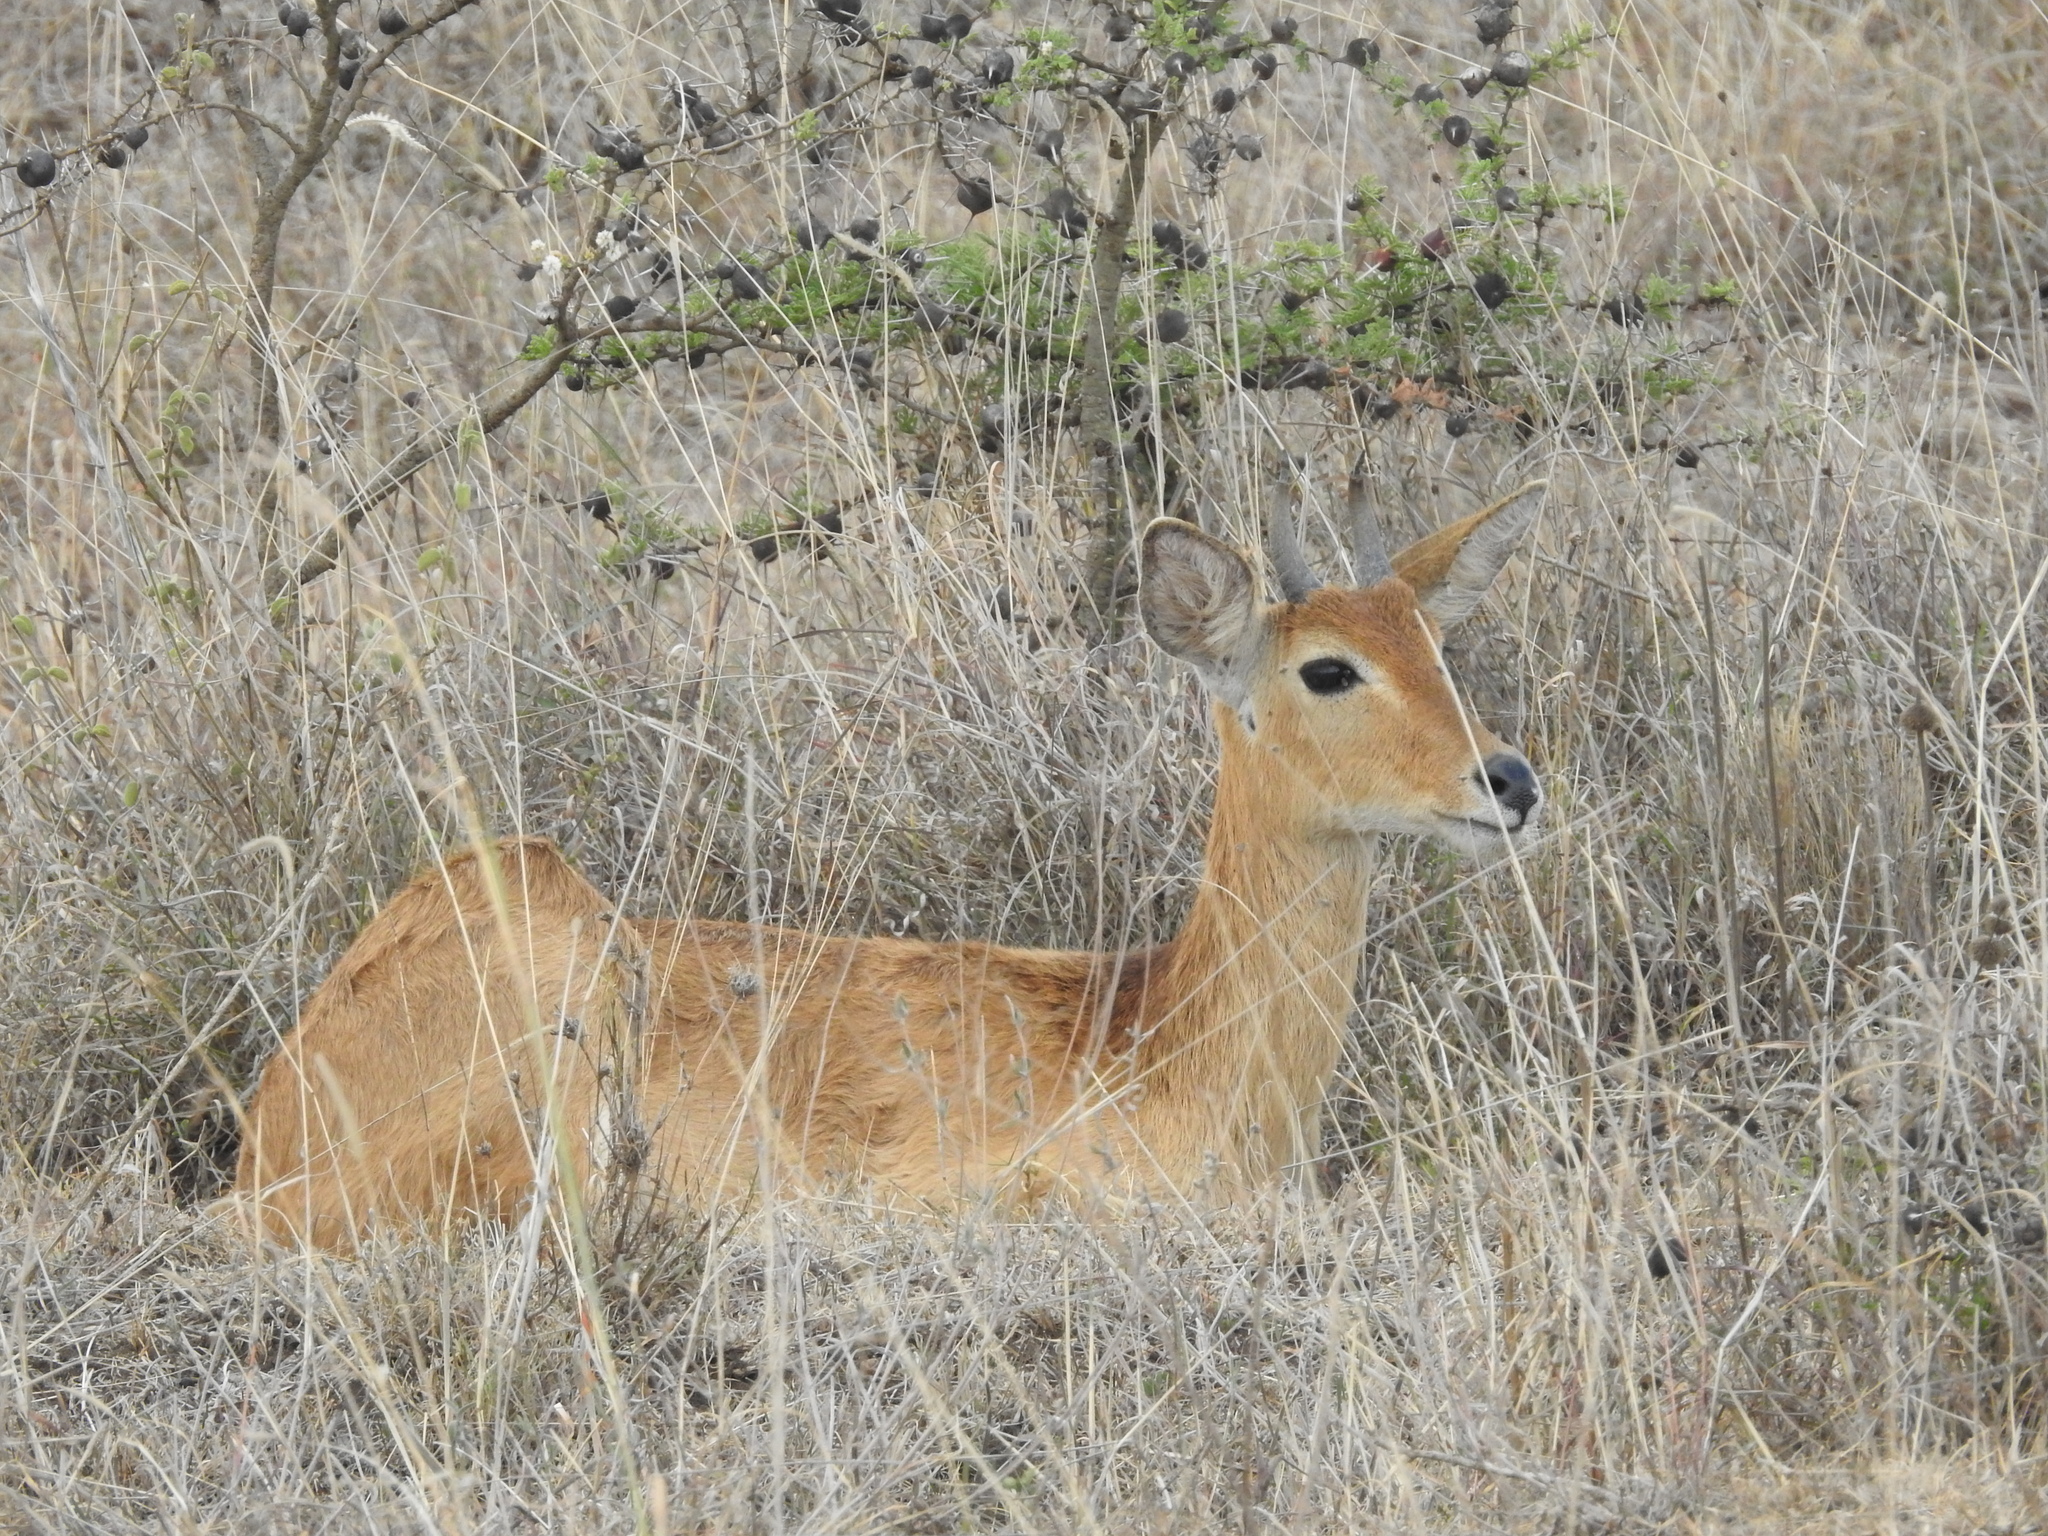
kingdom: Animalia
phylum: Chordata
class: Mammalia
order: Artiodactyla
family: Bovidae
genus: Redunca
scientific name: Redunca redunca
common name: Common reedbuck
